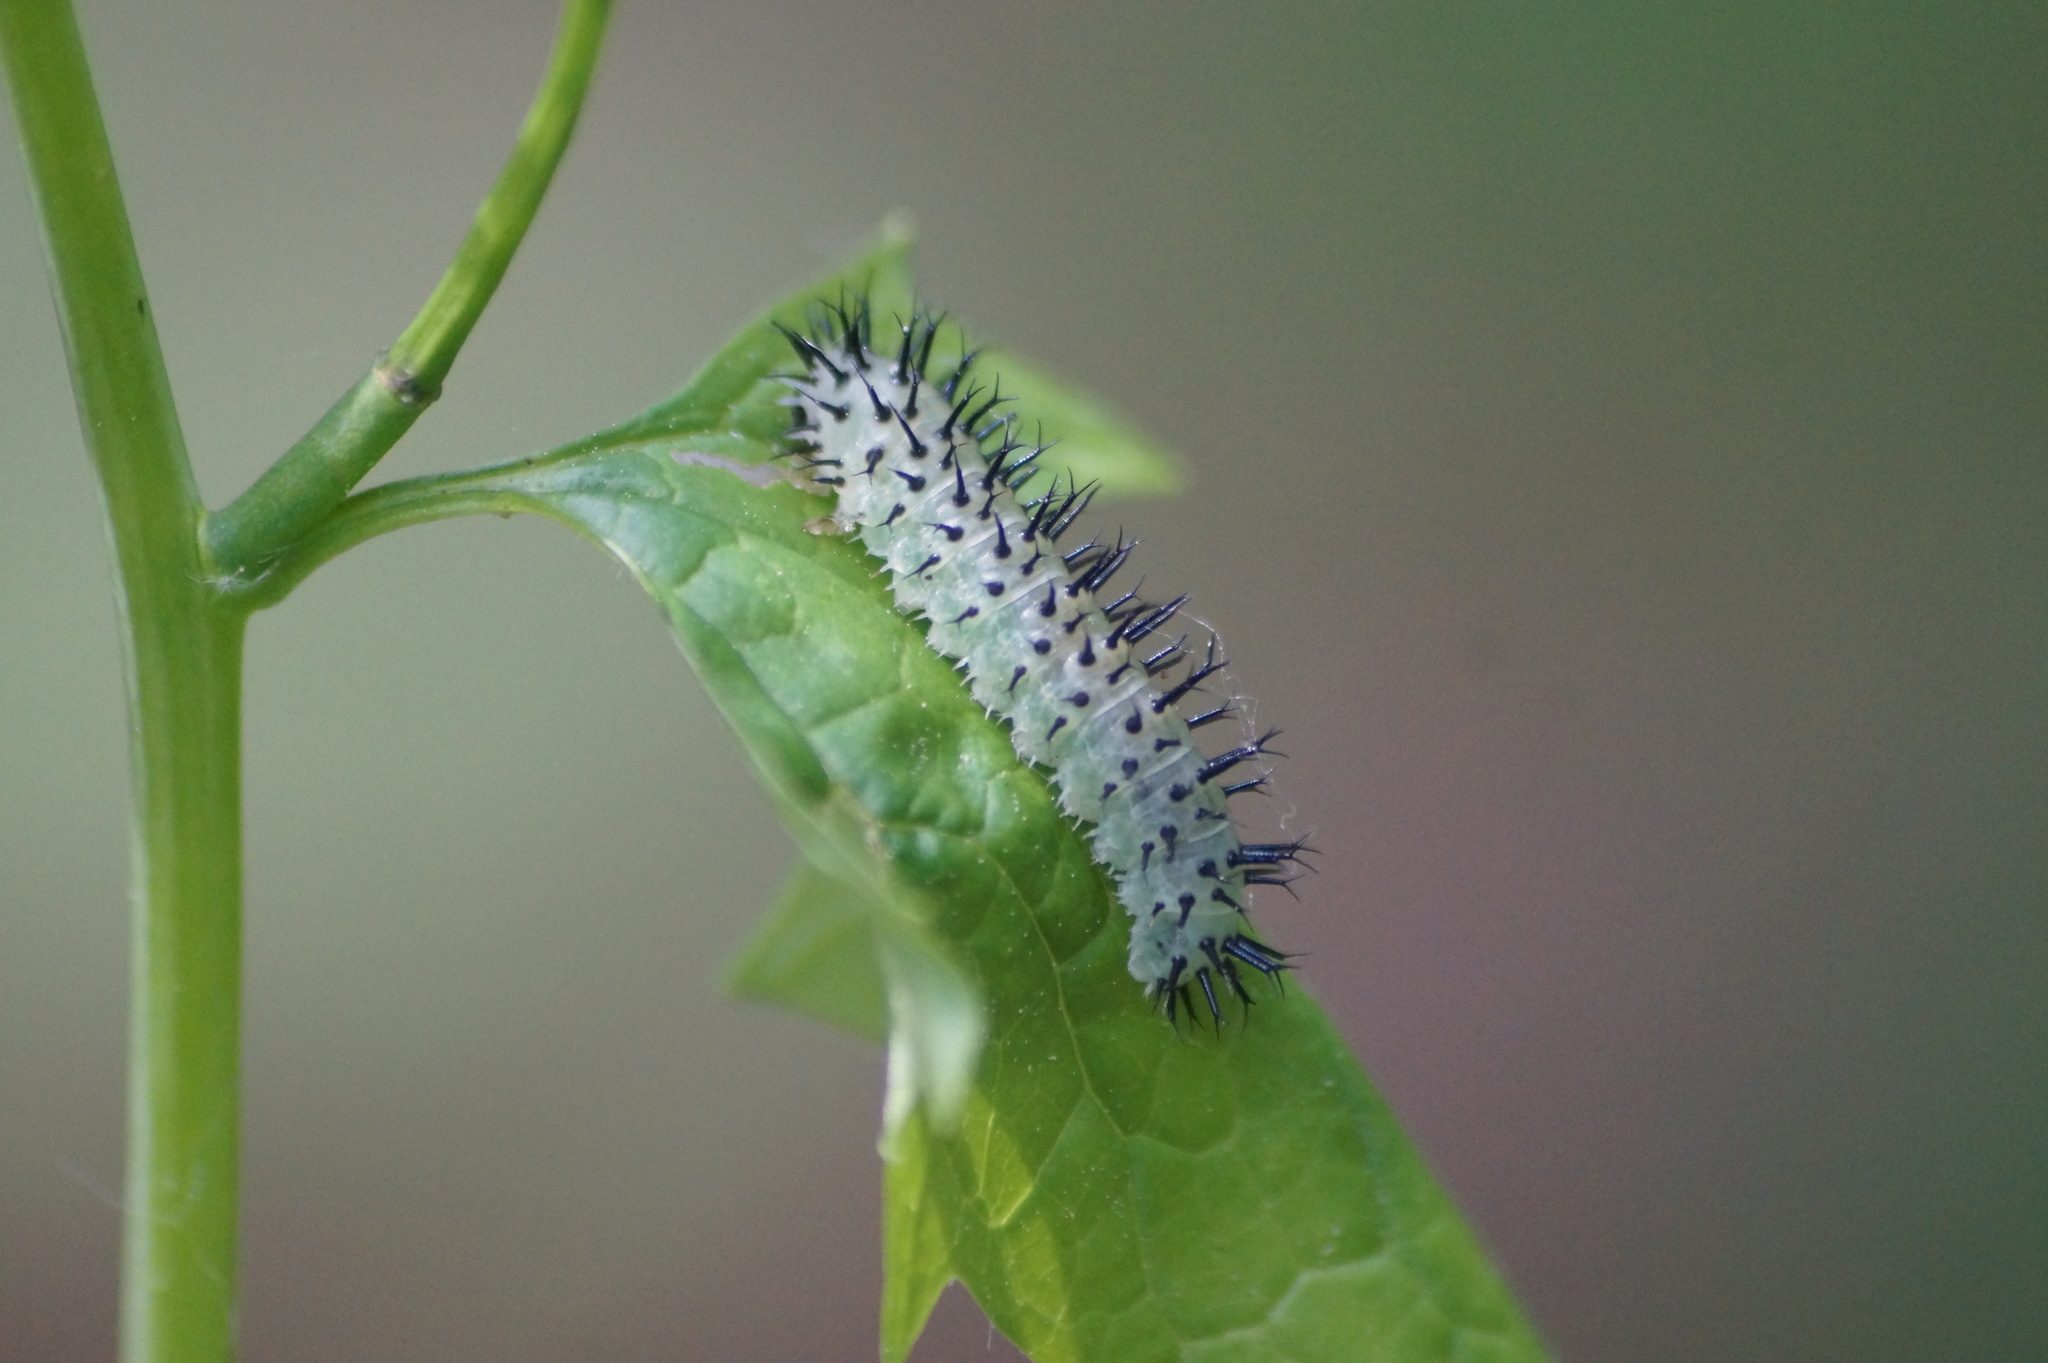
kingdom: Animalia
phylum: Arthropoda
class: Insecta
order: Hymenoptera
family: Tenthredinidae
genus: Periclista
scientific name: Periclista pubescens
